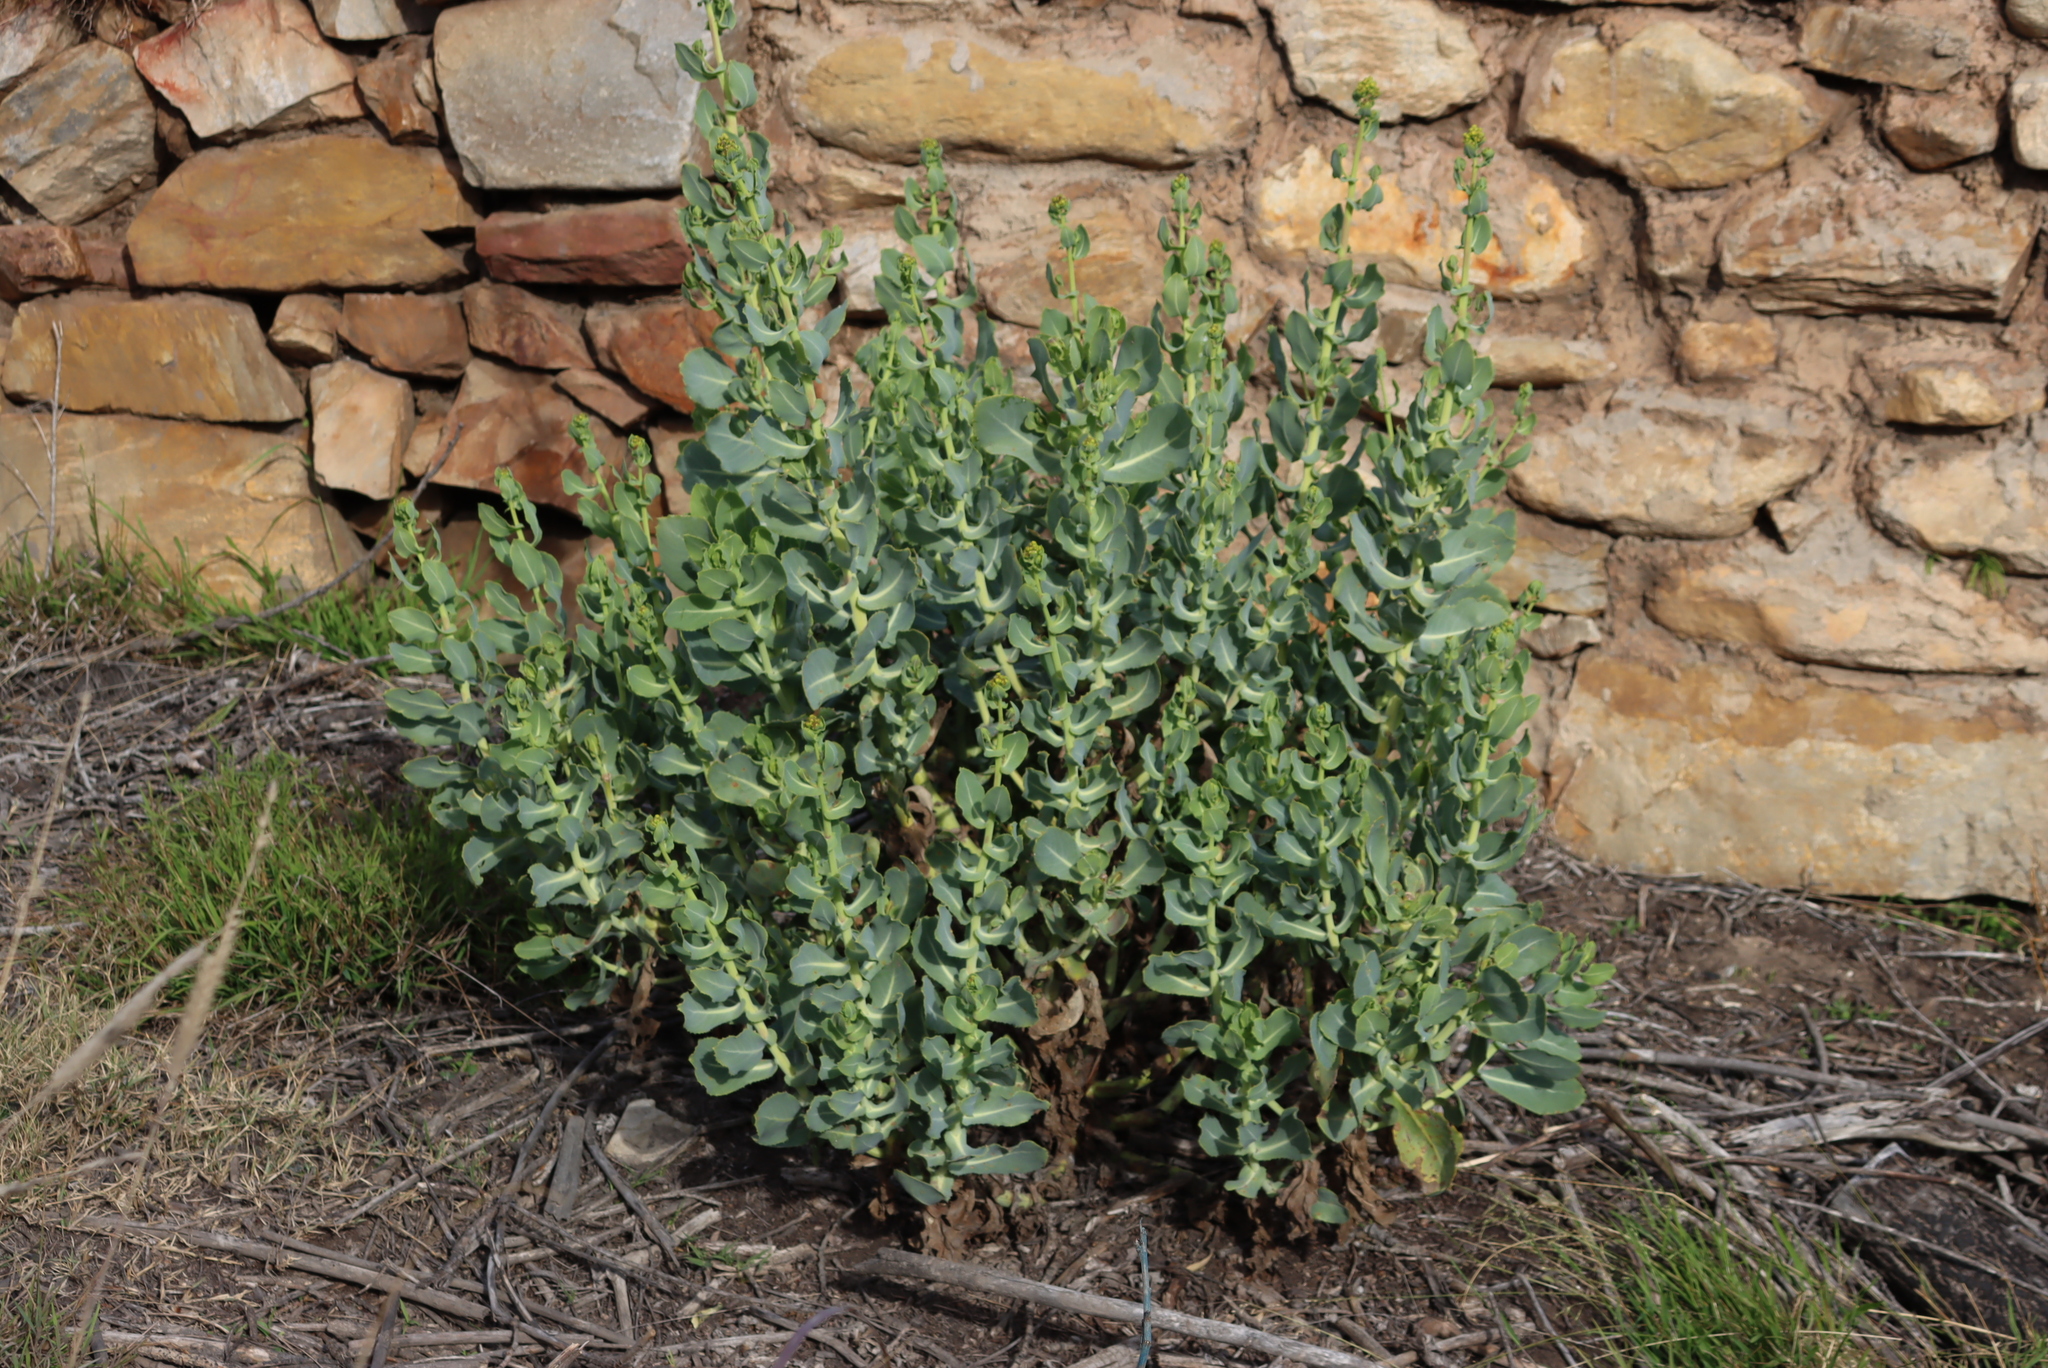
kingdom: Plantae
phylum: Tracheophyta
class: Magnoliopsida
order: Asterales
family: Asteraceae
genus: Othonna
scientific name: Othonna parviflora
